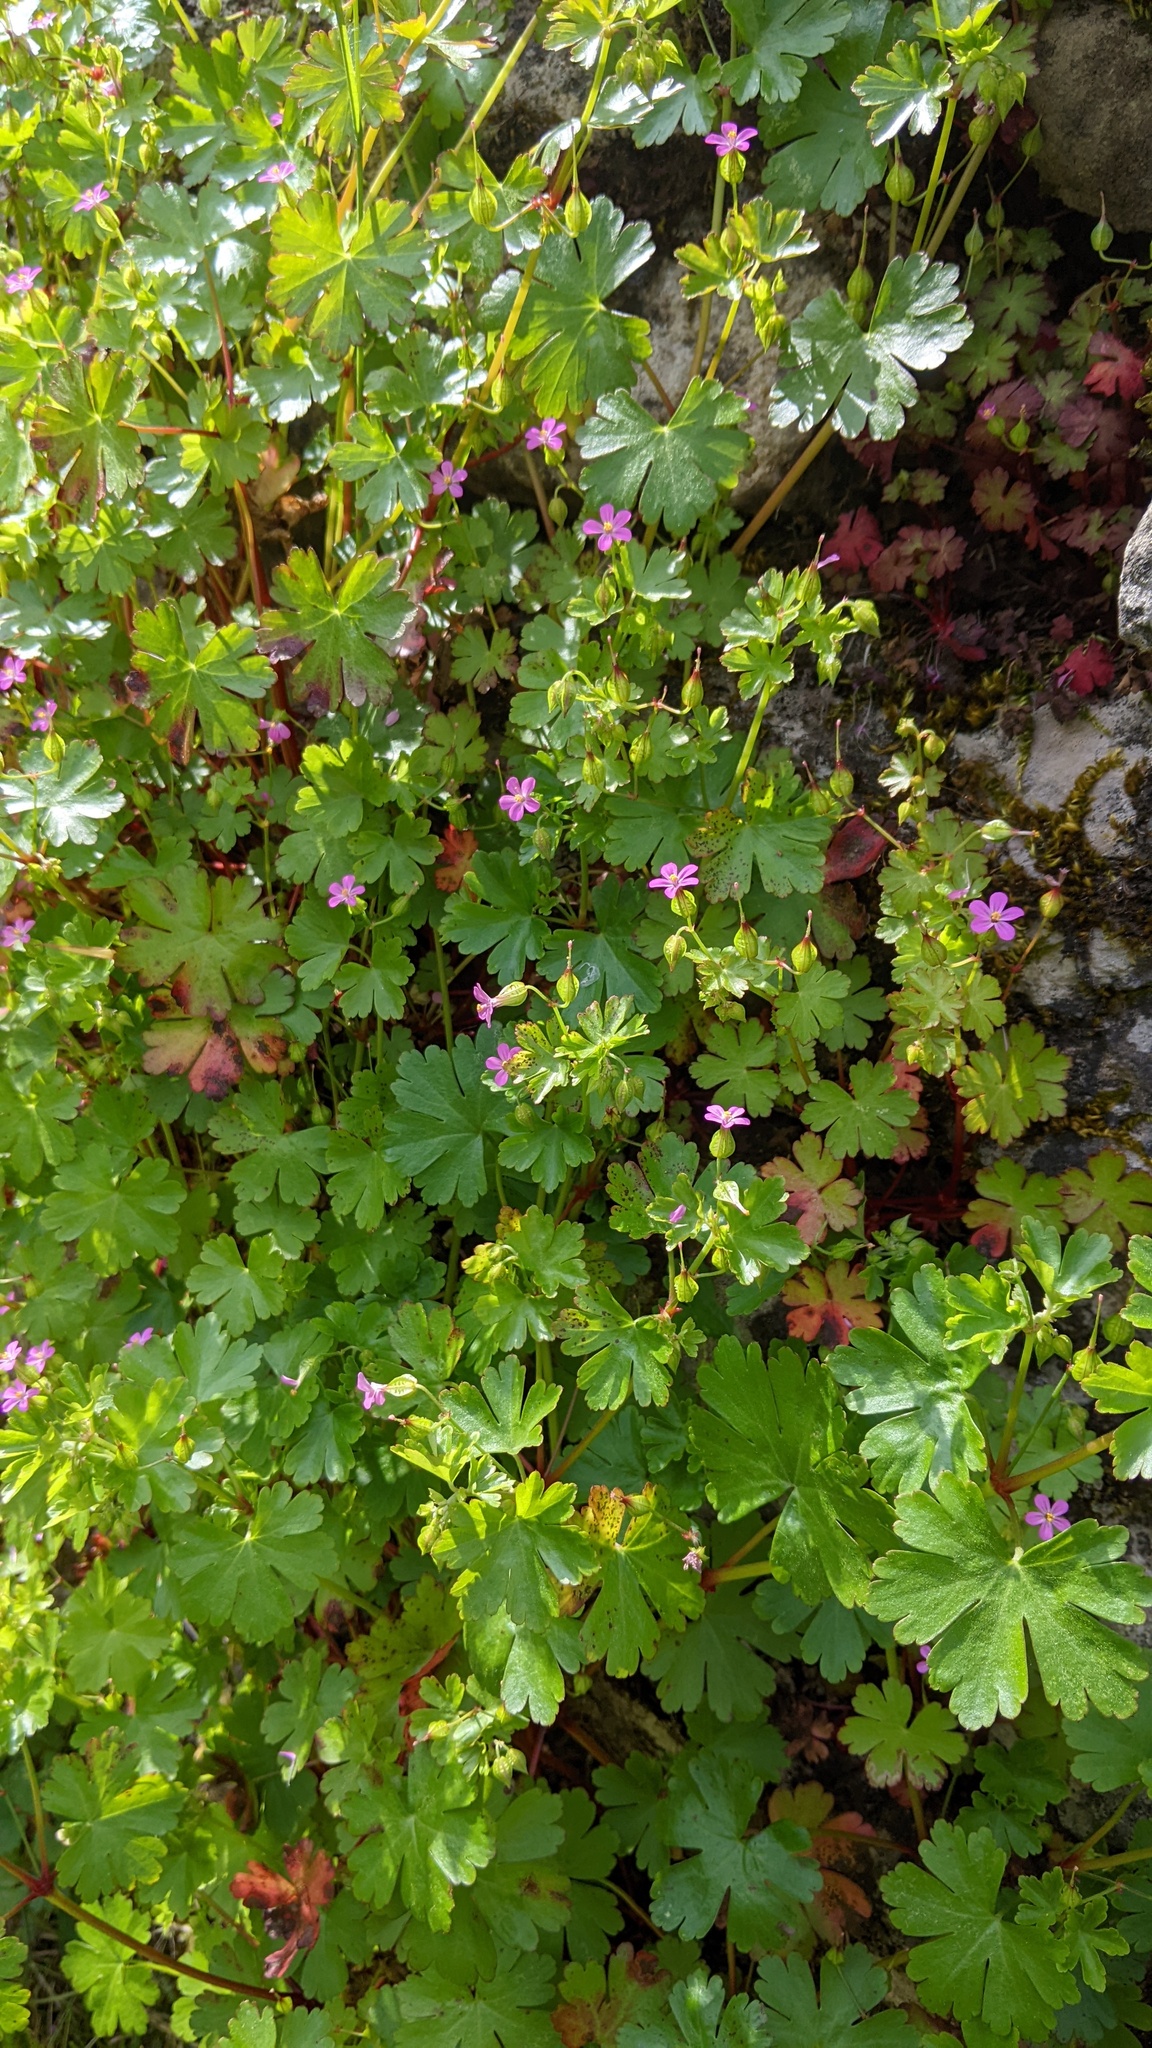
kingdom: Plantae
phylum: Tracheophyta
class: Magnoliopsida
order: Geraniales
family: Geraniaceae
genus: Geranium
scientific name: Geranium lucidum
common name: Shining crane's-bill
